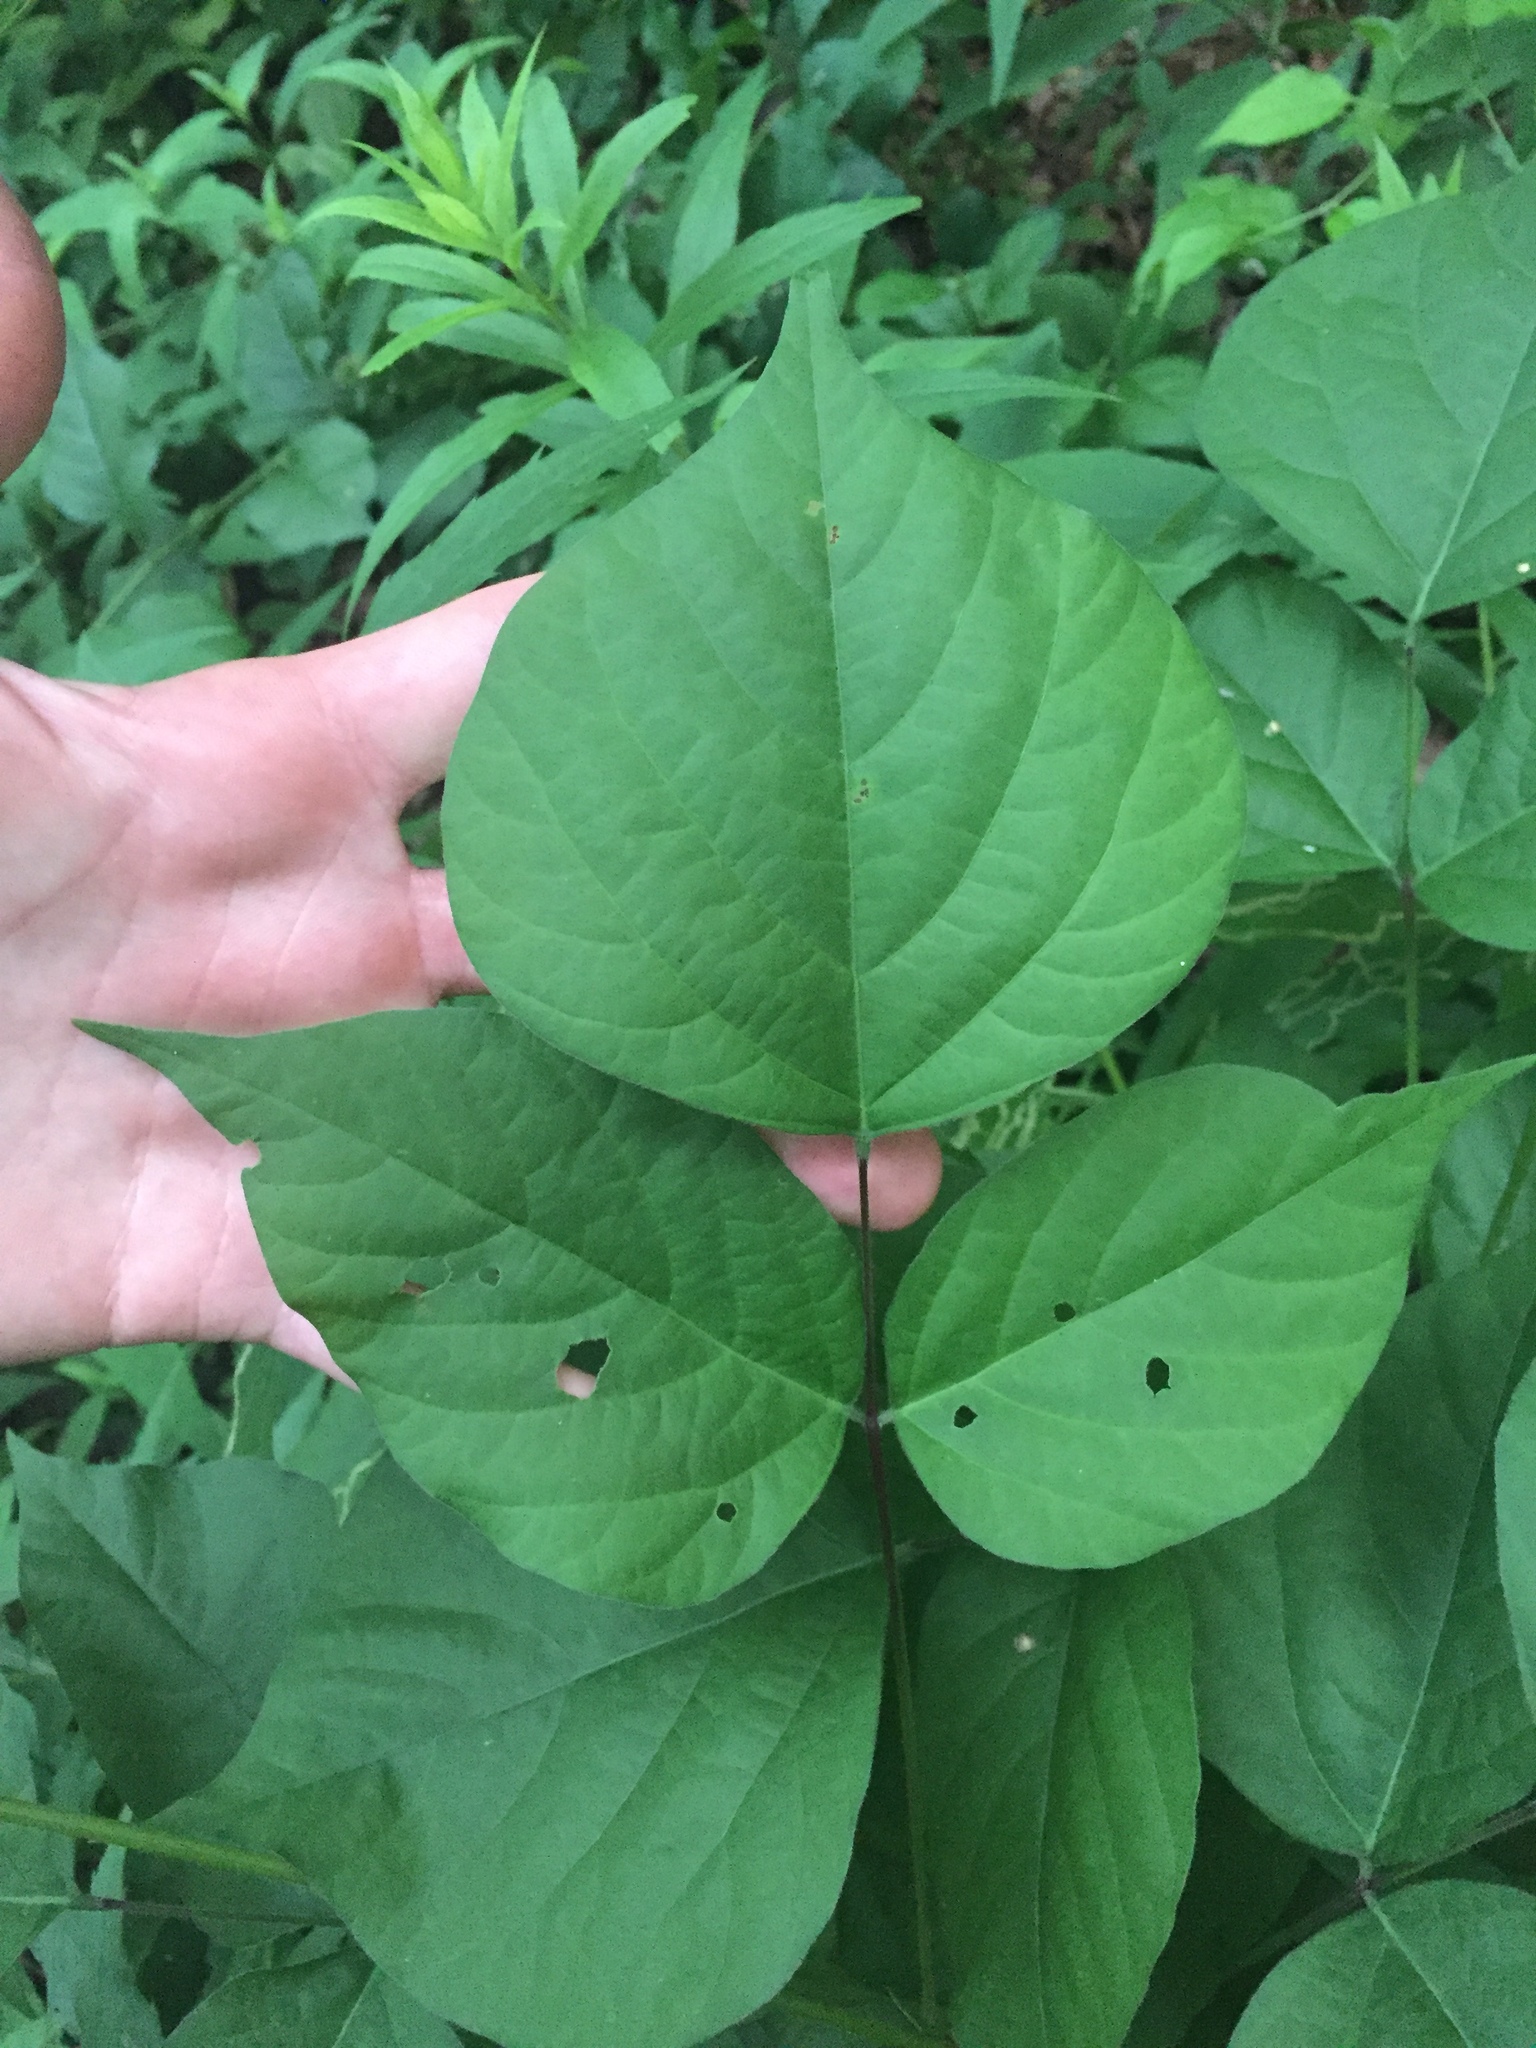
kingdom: Plantae
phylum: Tracheophyta
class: Magnoliopsida
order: Fabales
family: Fabaceae
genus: Hylodesmum
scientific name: Hylodesmum glutinosum
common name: Clustered-leaved tick-trefoil
